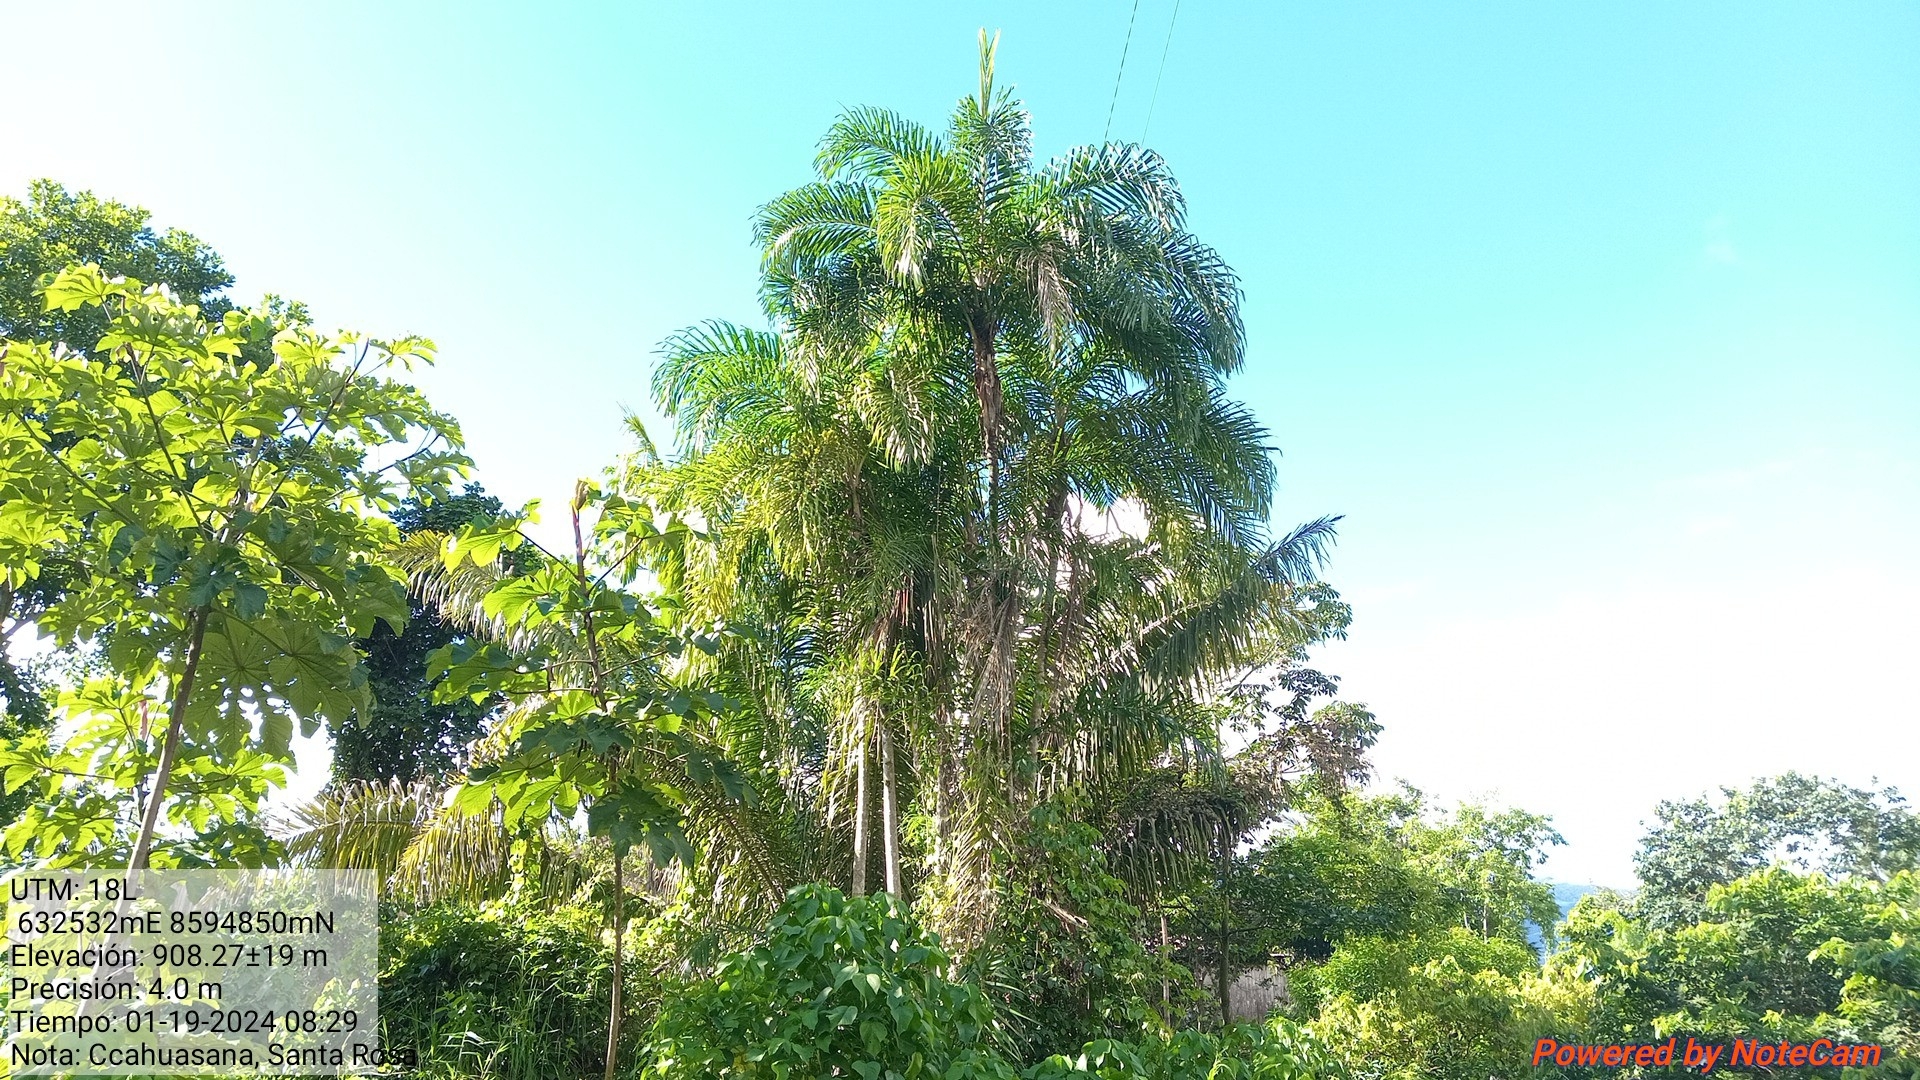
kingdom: Plantae
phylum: Tracheophyta
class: Liliopsida
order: Arecales
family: Arecaceae
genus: Bactris
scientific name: Bactris gasipaes
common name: Peach palm
